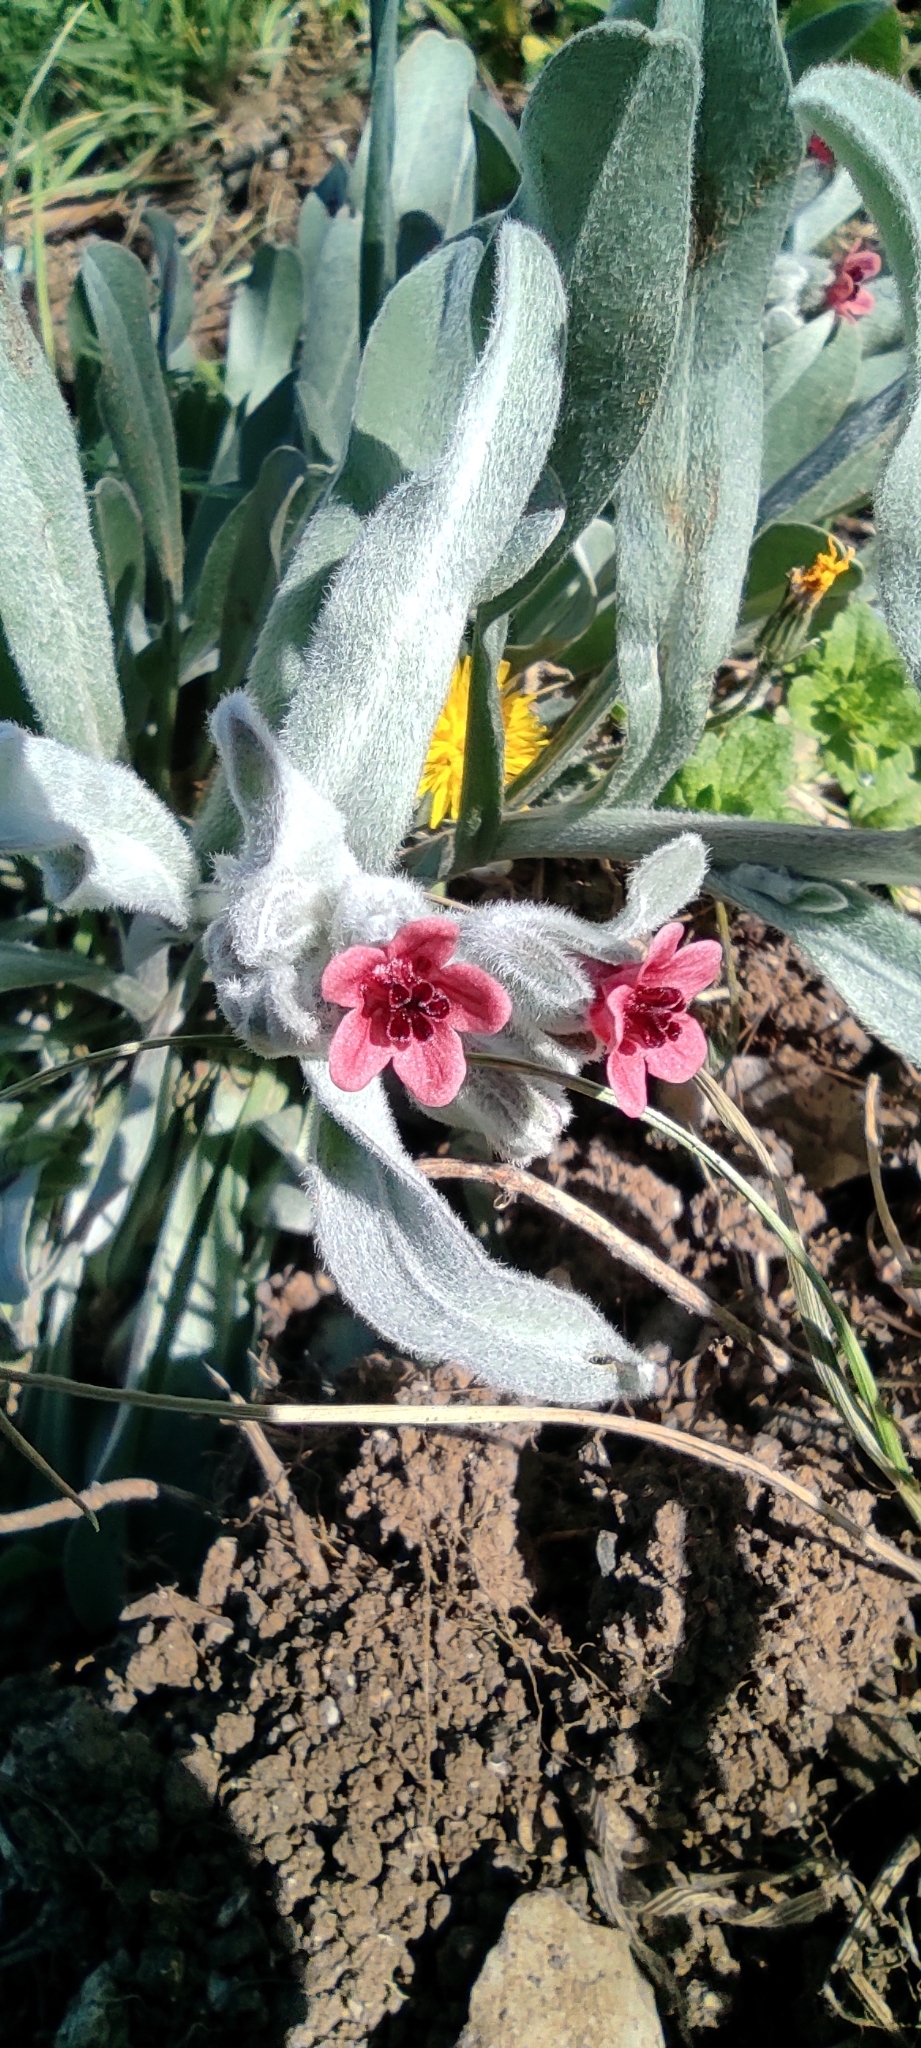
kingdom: Plantae
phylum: Tracheophyta
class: Magnoliopsida
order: Boraginales
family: Boraginaceae
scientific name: Boraginaceae
